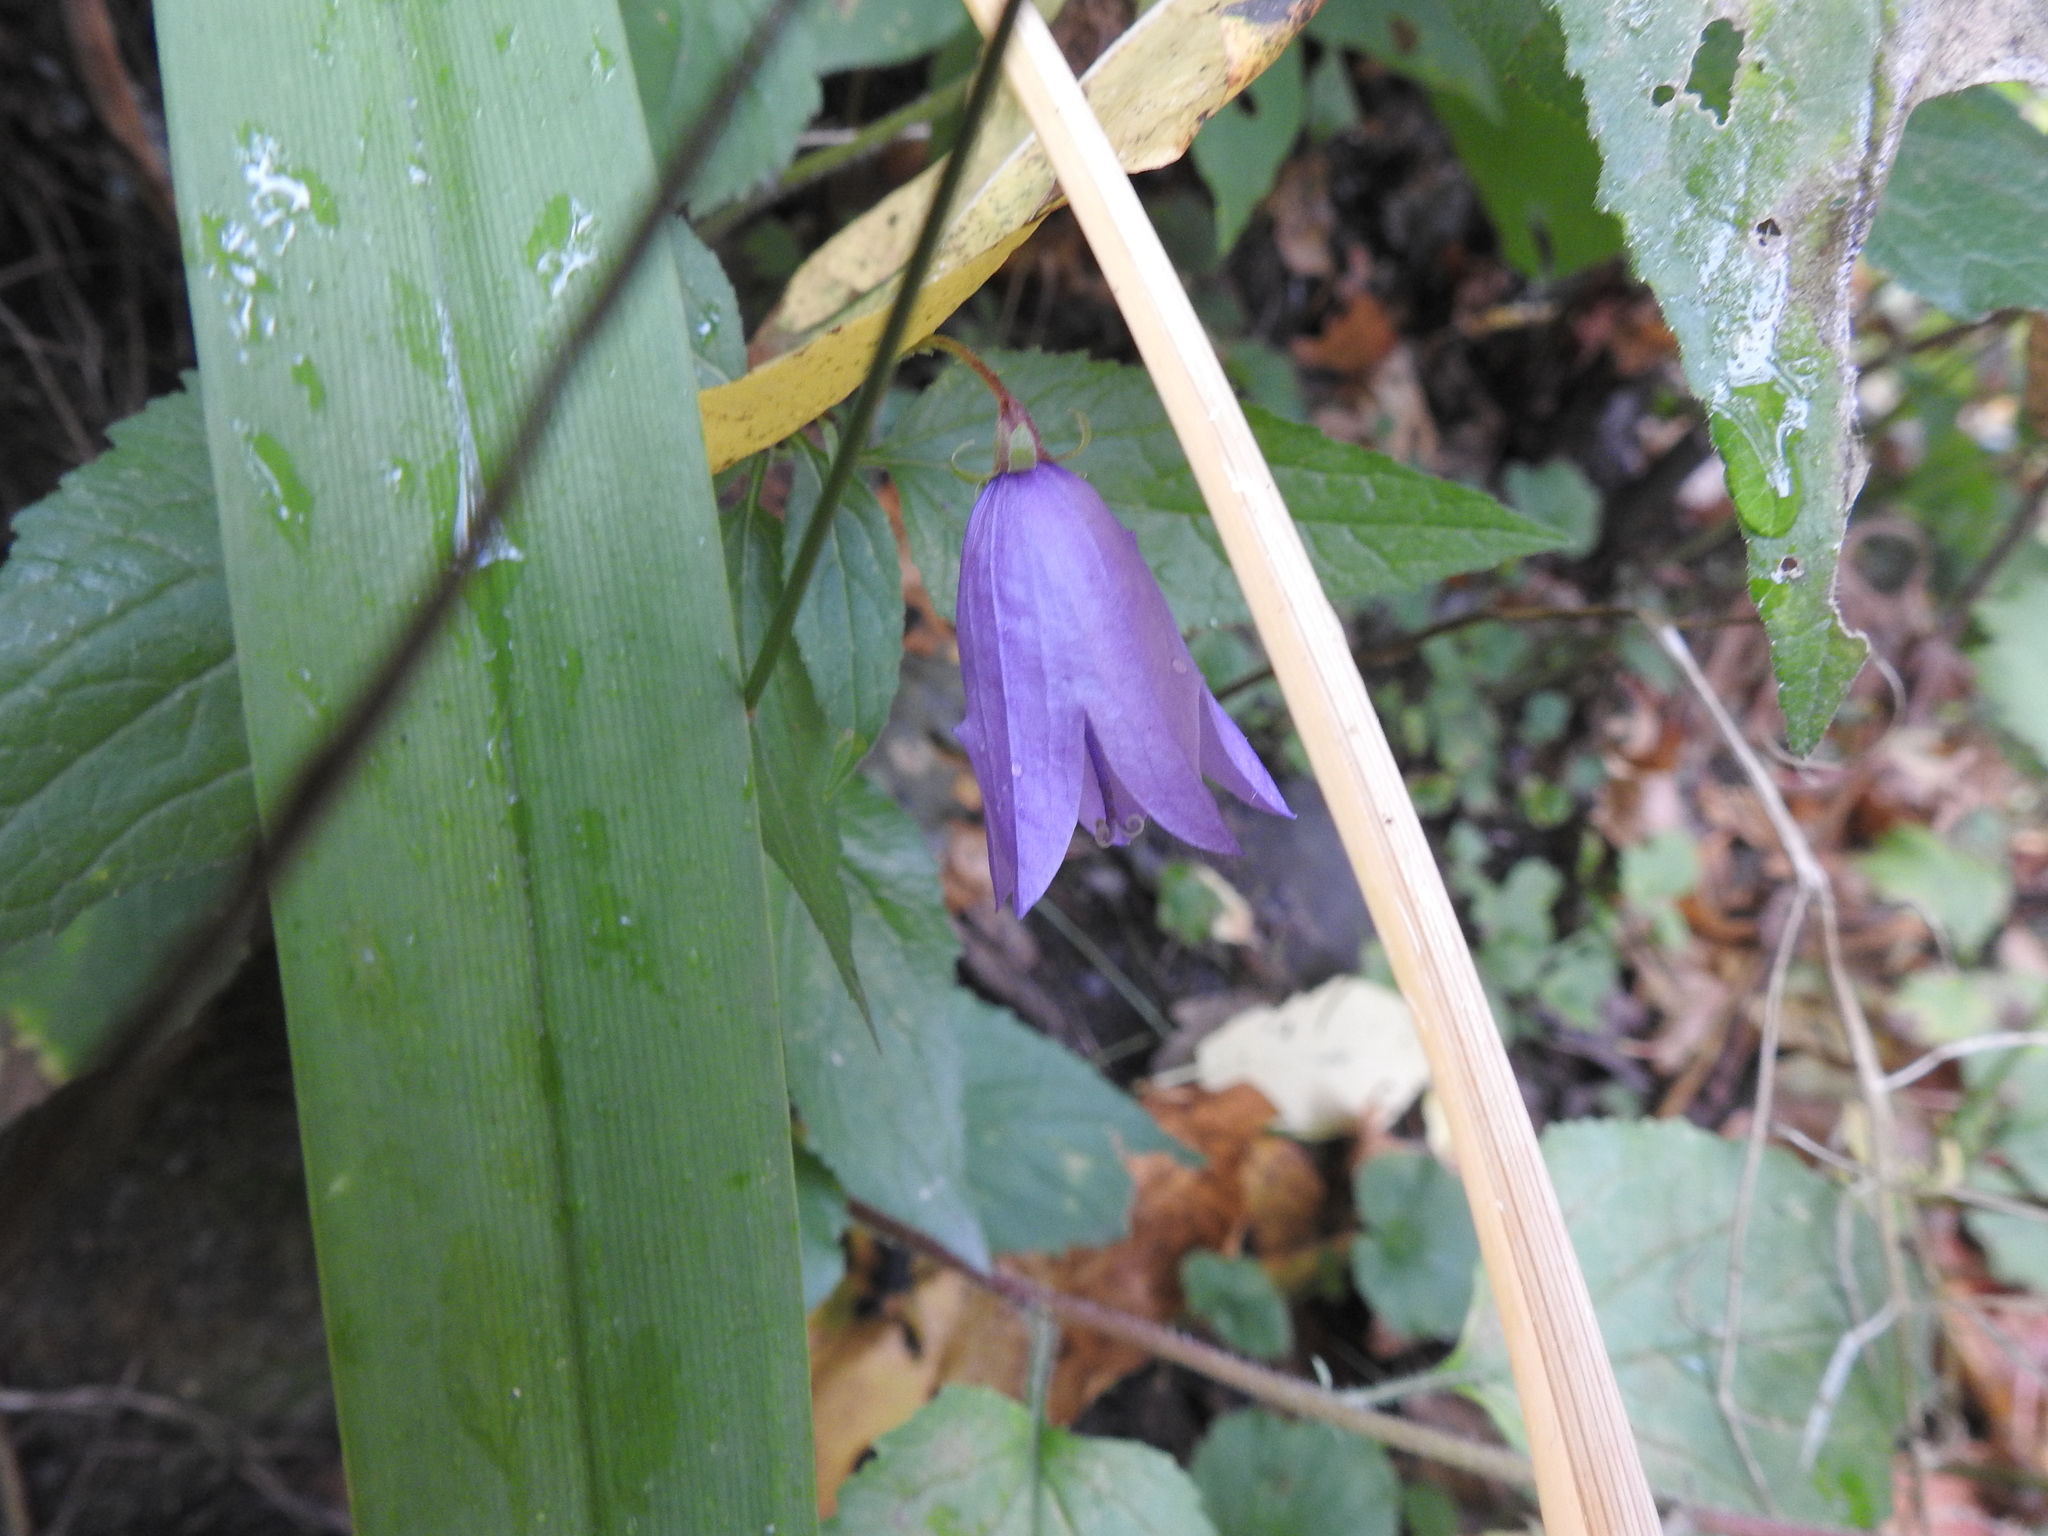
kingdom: Plantae
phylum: Tracheophyta
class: Magnoliopsida
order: Asterales
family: Campanulaceae
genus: Campanula
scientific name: Campanula rapunculoides
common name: Creeping bellflower
